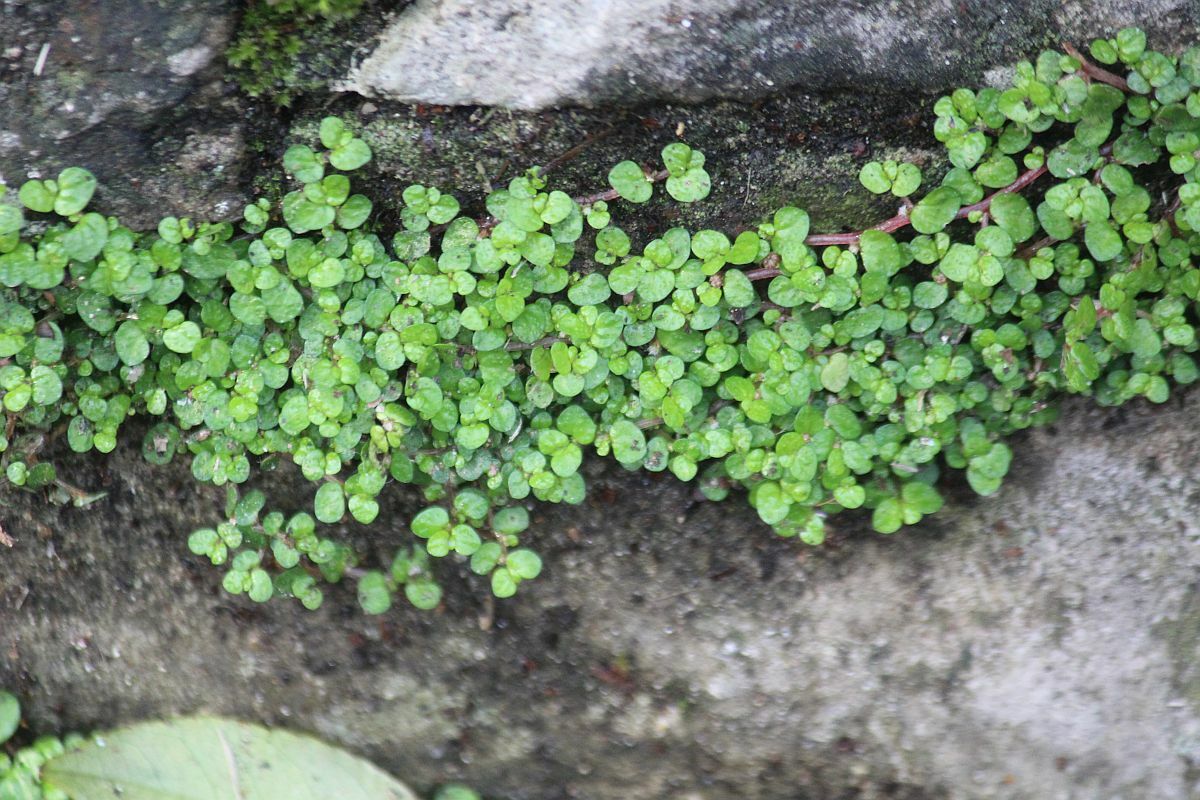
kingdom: Plantae
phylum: Tracheophyta
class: Magnoliopsida
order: Rosales
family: Urticaceae
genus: Soleirolia
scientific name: Soleirolia soleirolii
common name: Mind-your-own-business
